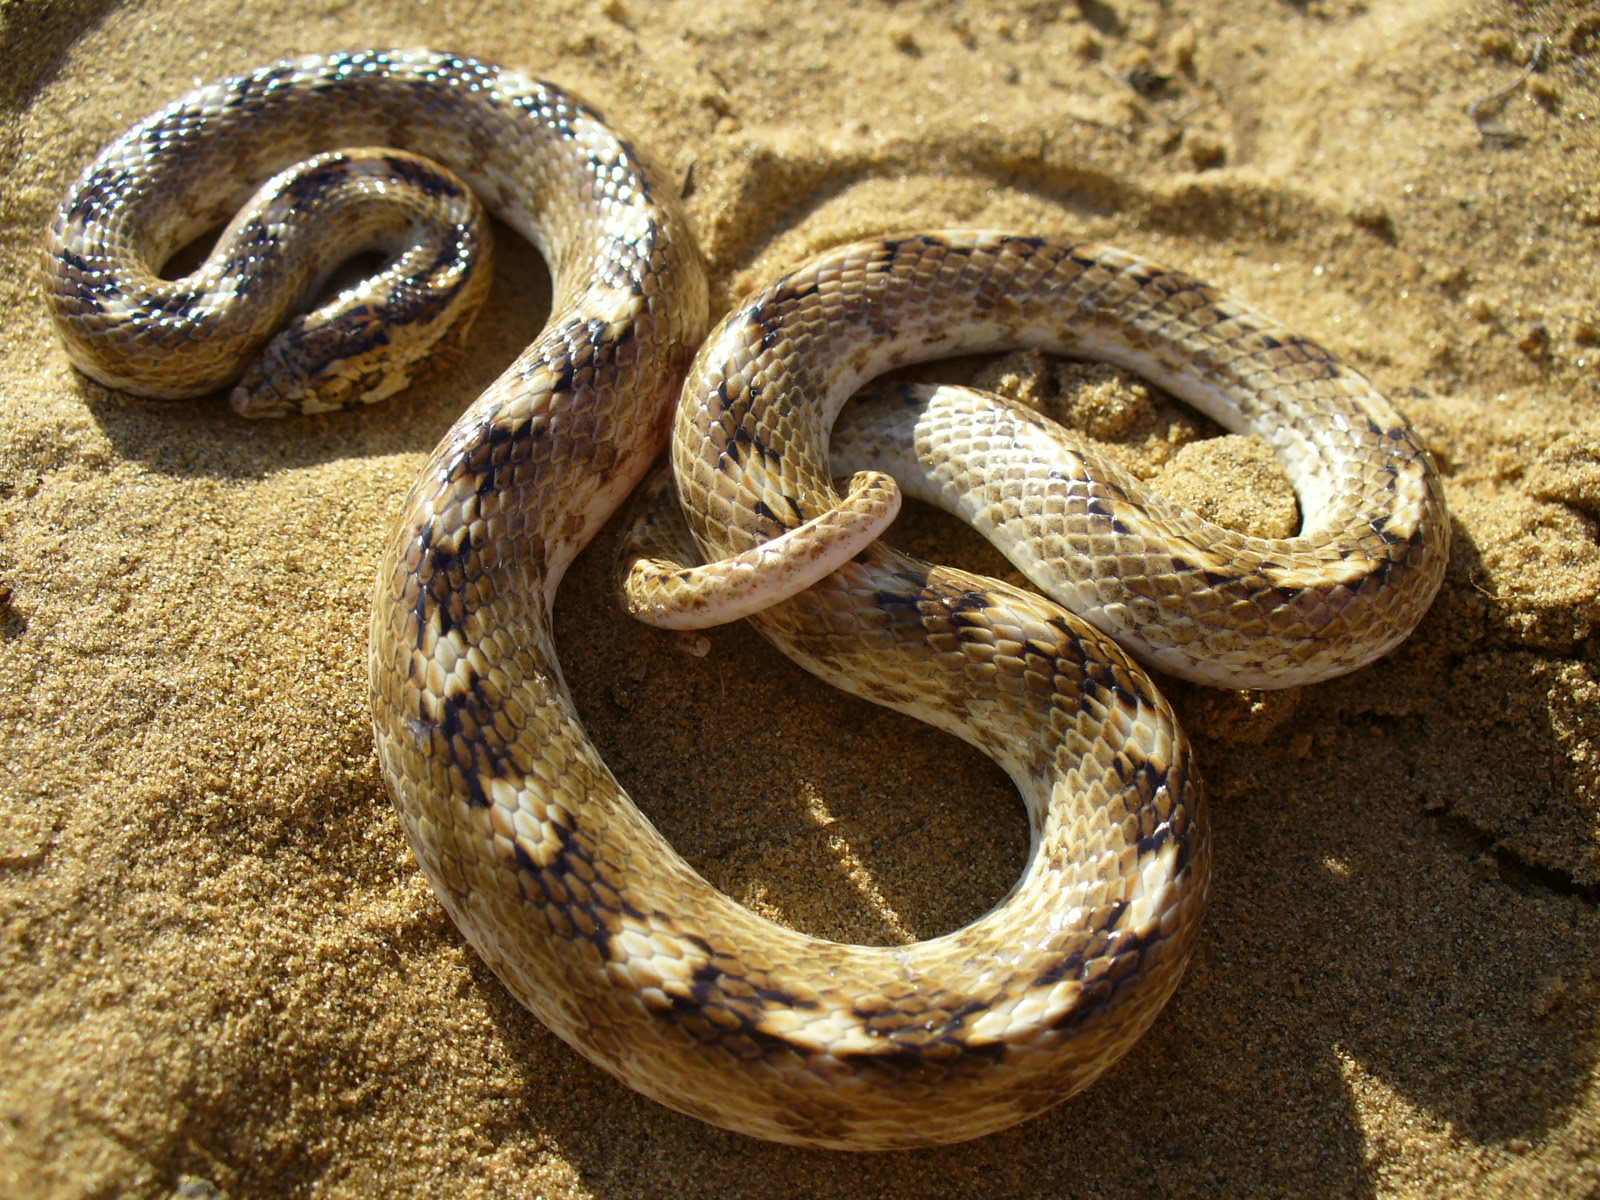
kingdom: Animalia
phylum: Chordata
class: Squamata
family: Colubridae
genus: Lytorhynchus
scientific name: Lytorhynchus paradoxus
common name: Sind longnose sand snake
